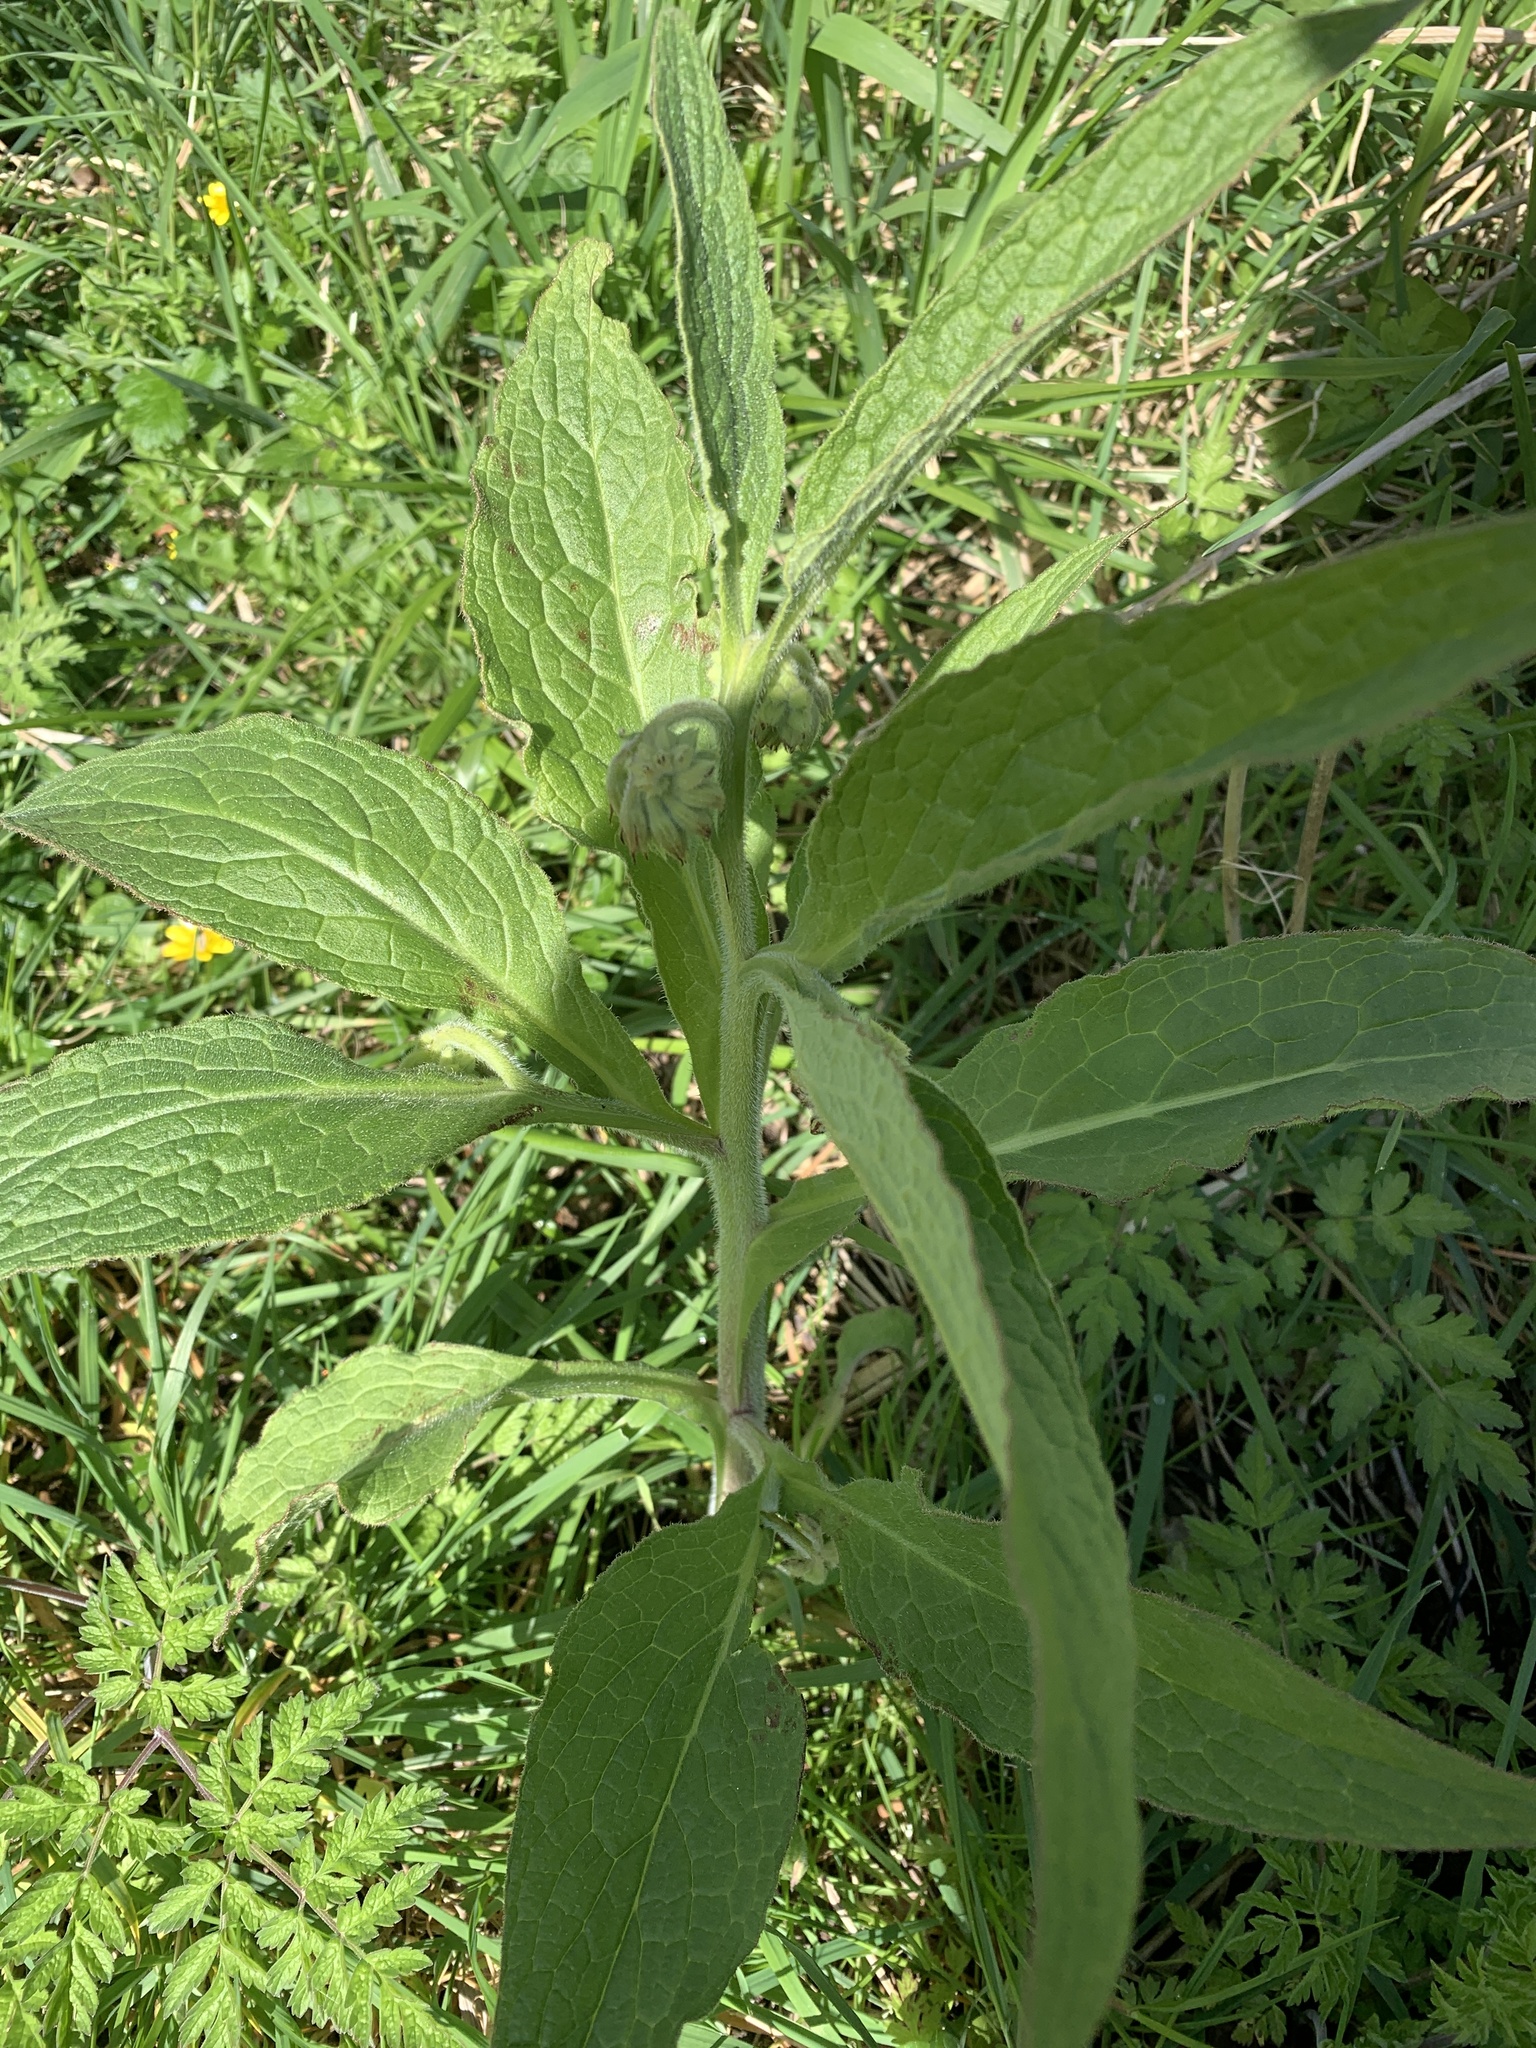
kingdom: Plantae
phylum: Tracheophyta
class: Magnoliopsida
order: Boraginales
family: Boraginaceae
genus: Symphytum
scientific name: Symphytum officinale
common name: Common comfrey
